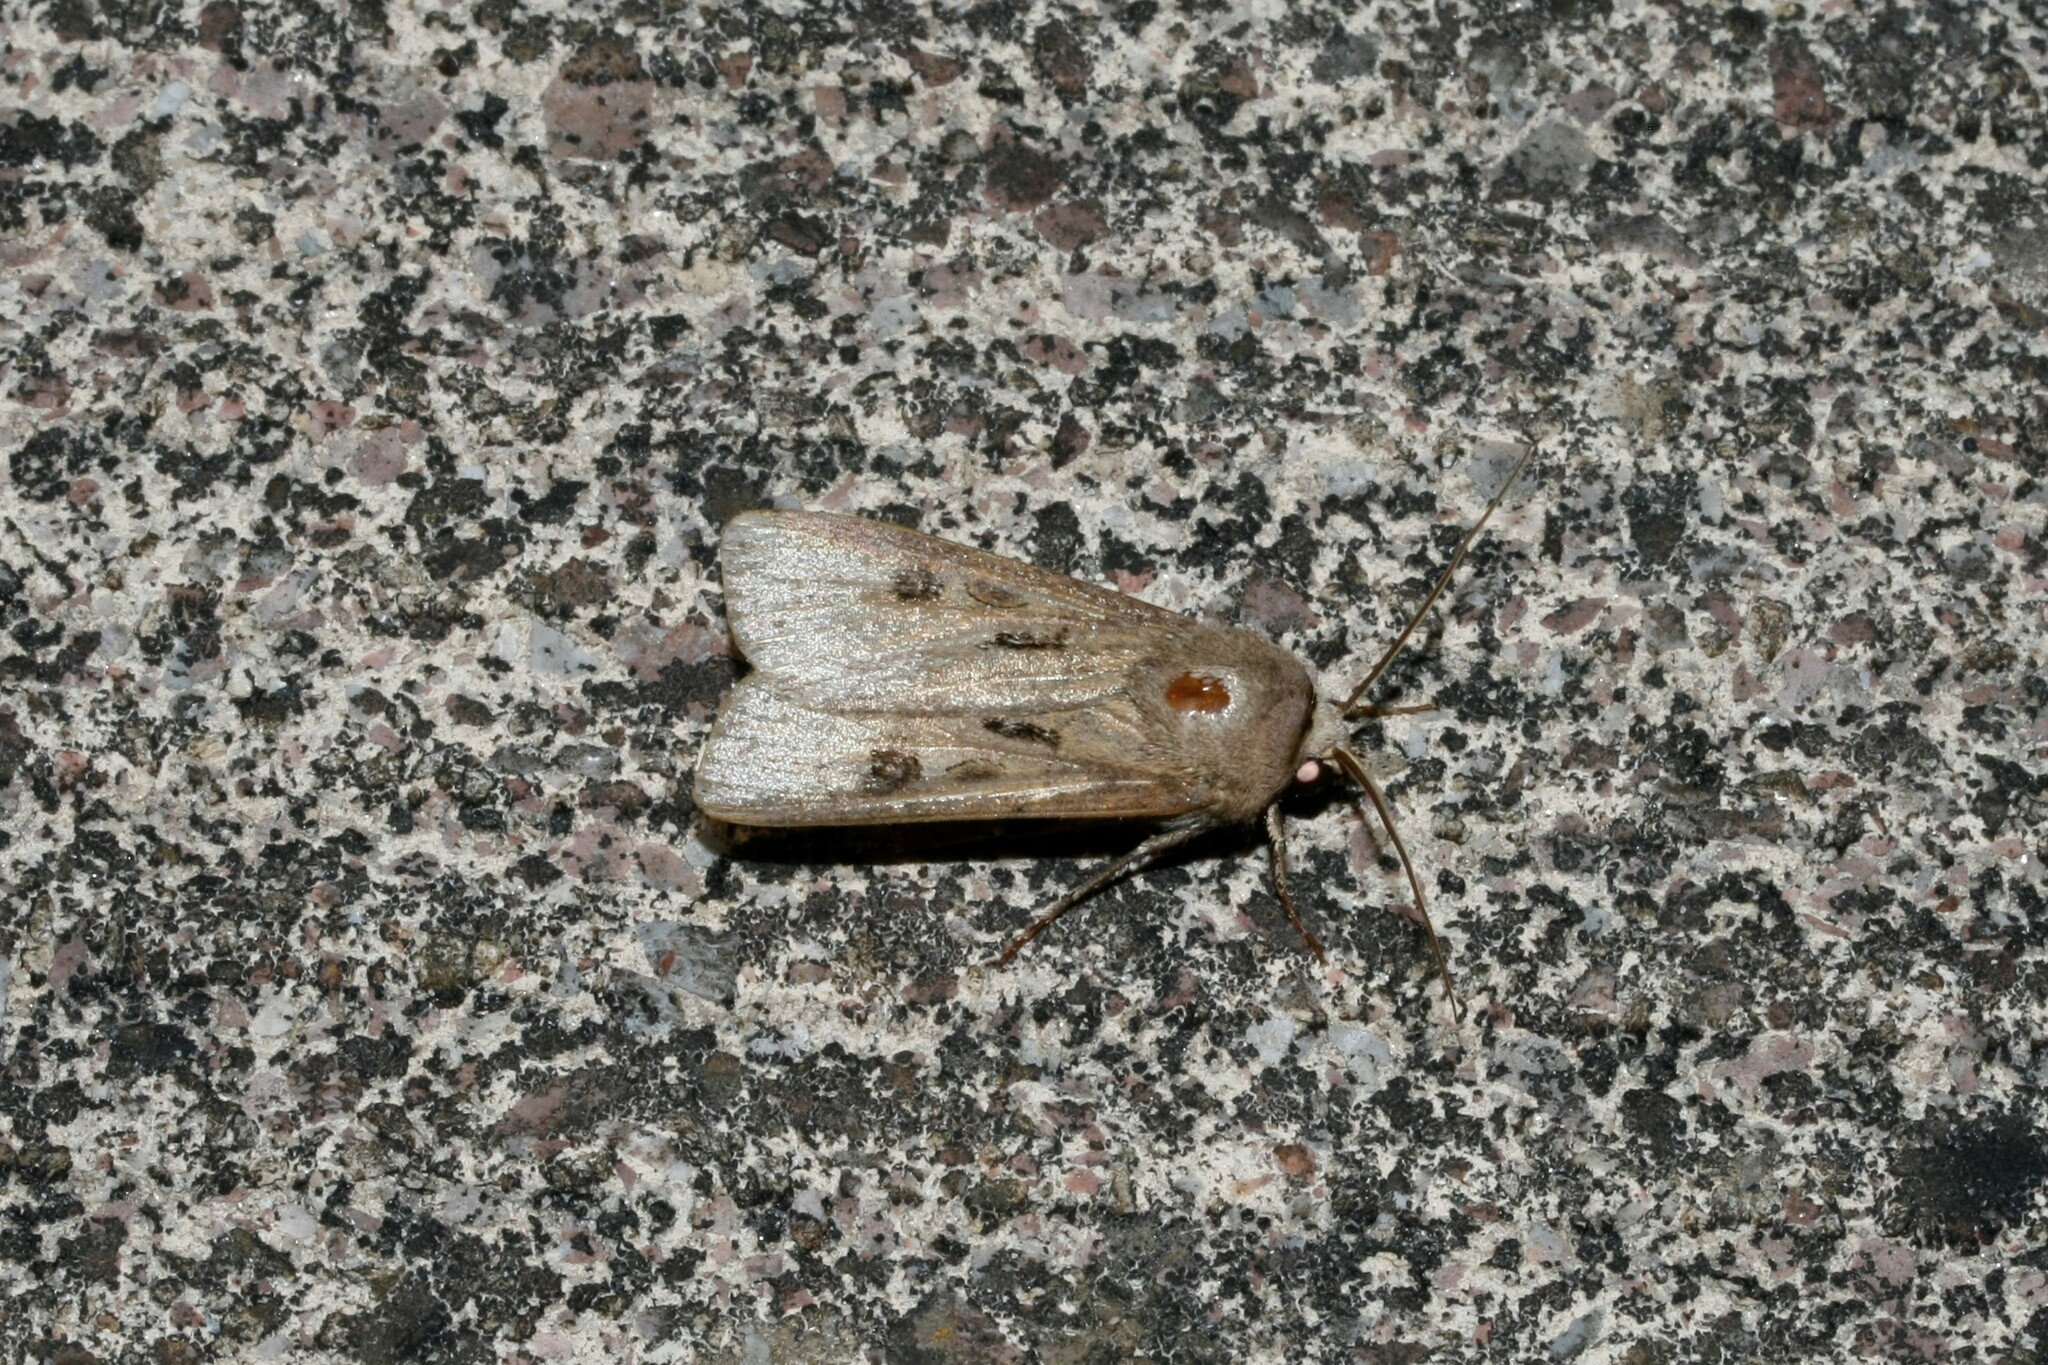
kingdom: Animalia
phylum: Arthropoda
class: Insecta
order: Lepidoptera
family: Noctuidae
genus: Agrotis
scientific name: Agrotis exclamationis
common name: Heart and dart
